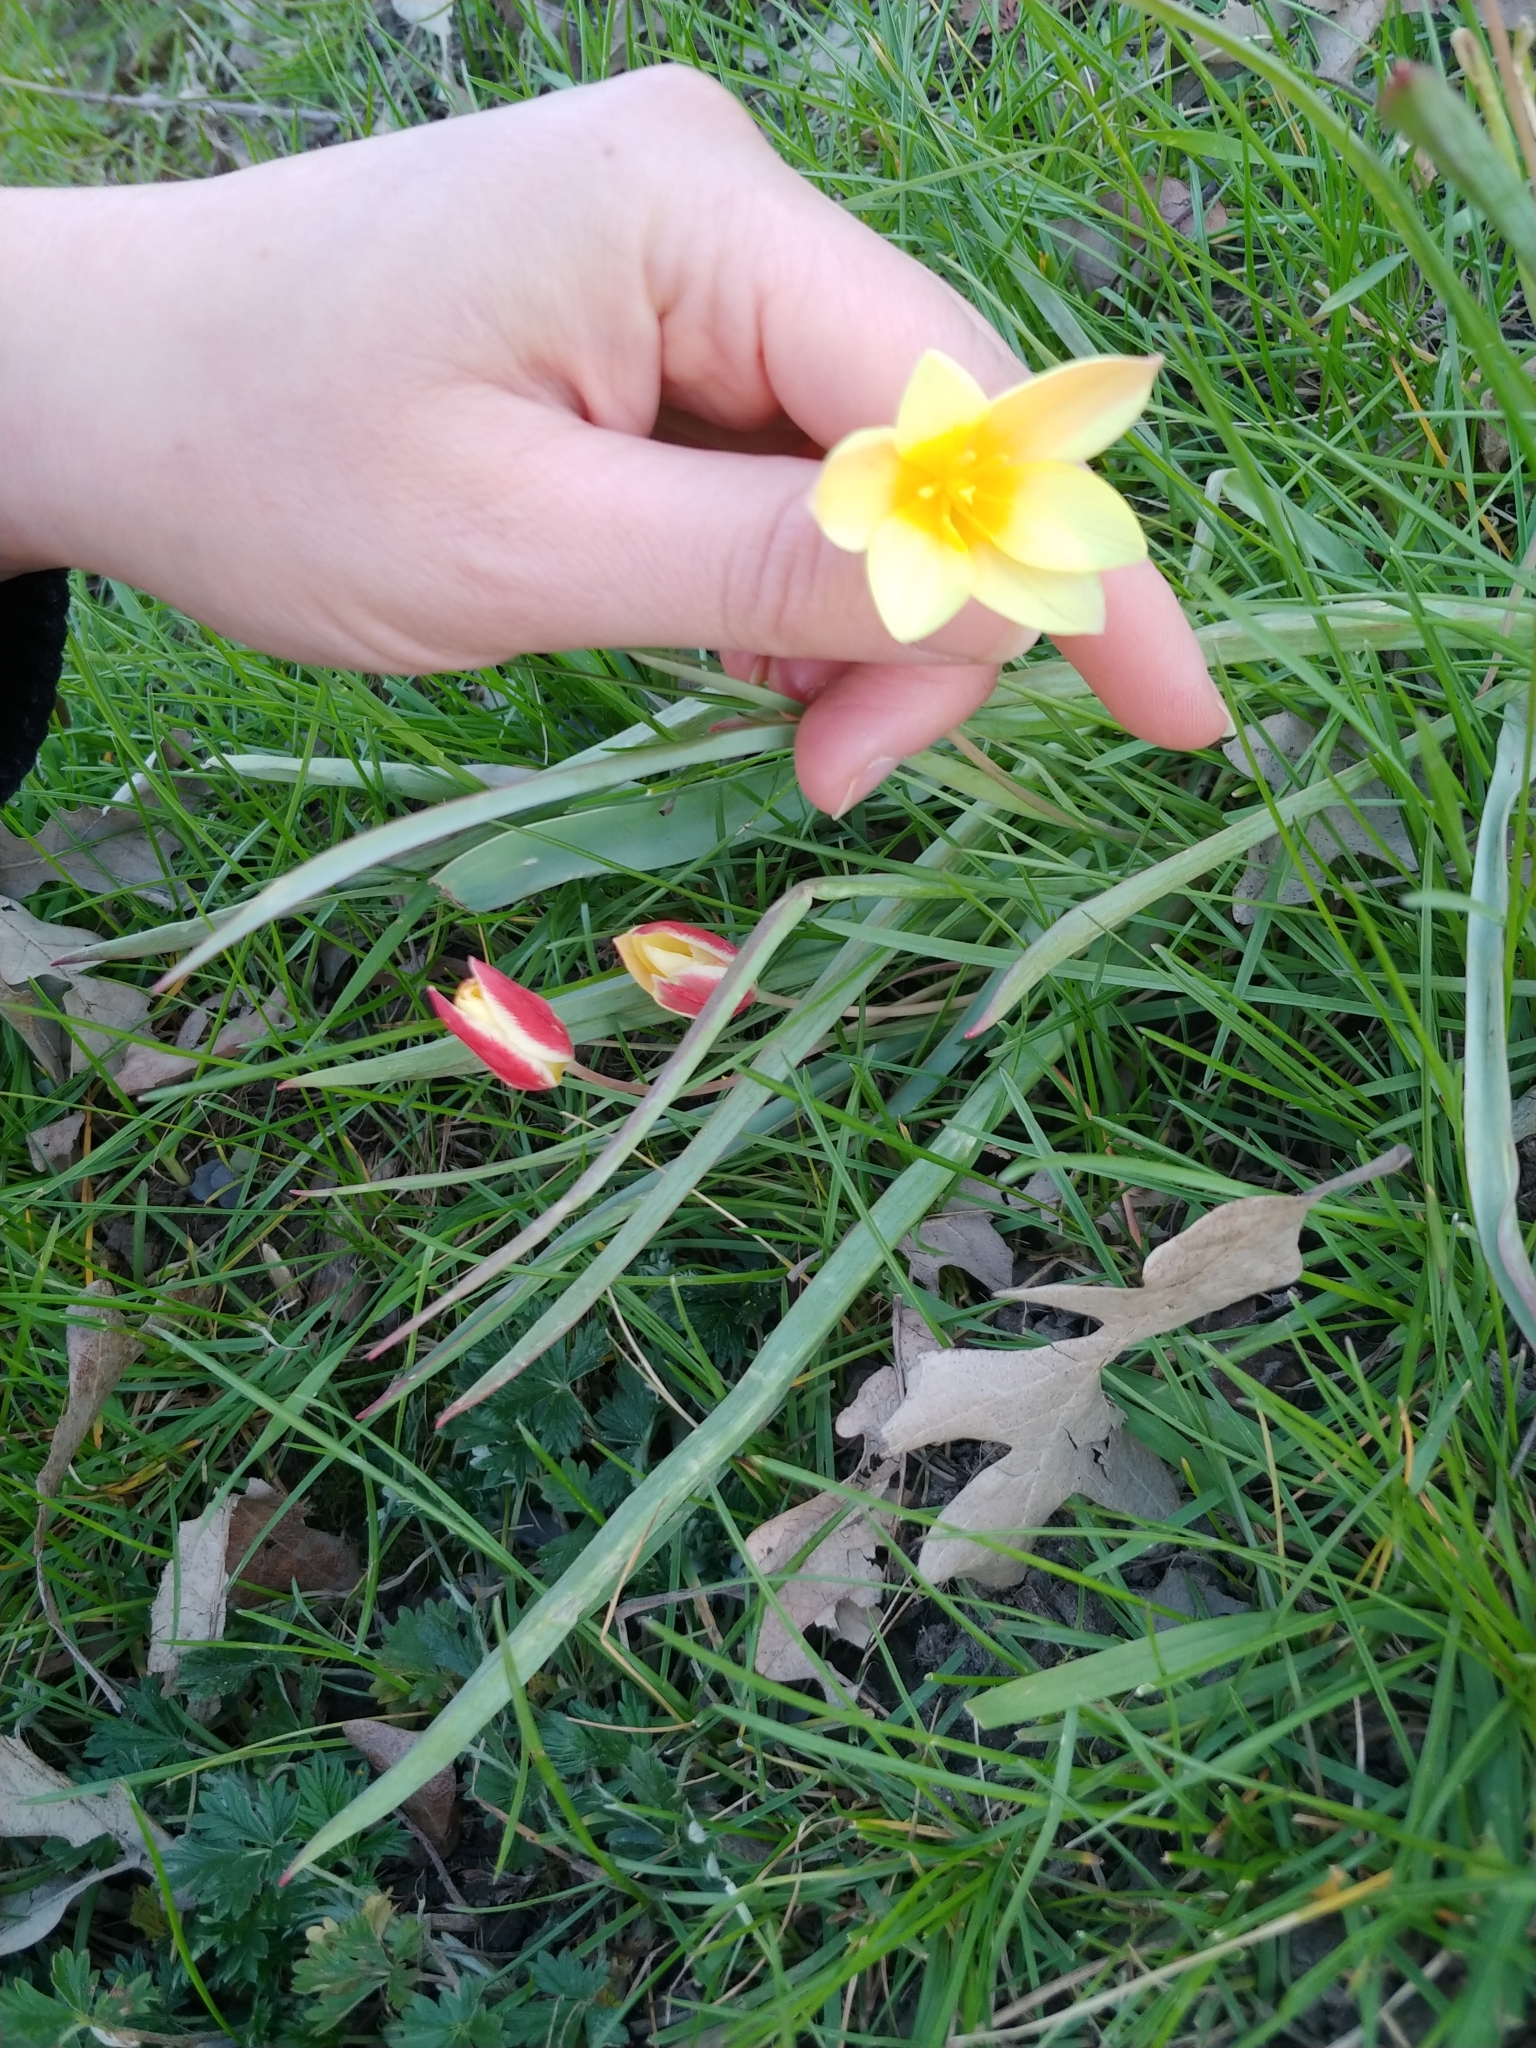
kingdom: Plantae
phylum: Tracheophyta
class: Liliopsida
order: Liliales
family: Liliaceae
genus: Tulipa
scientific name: Tulipa clusiana
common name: Lady tulip
